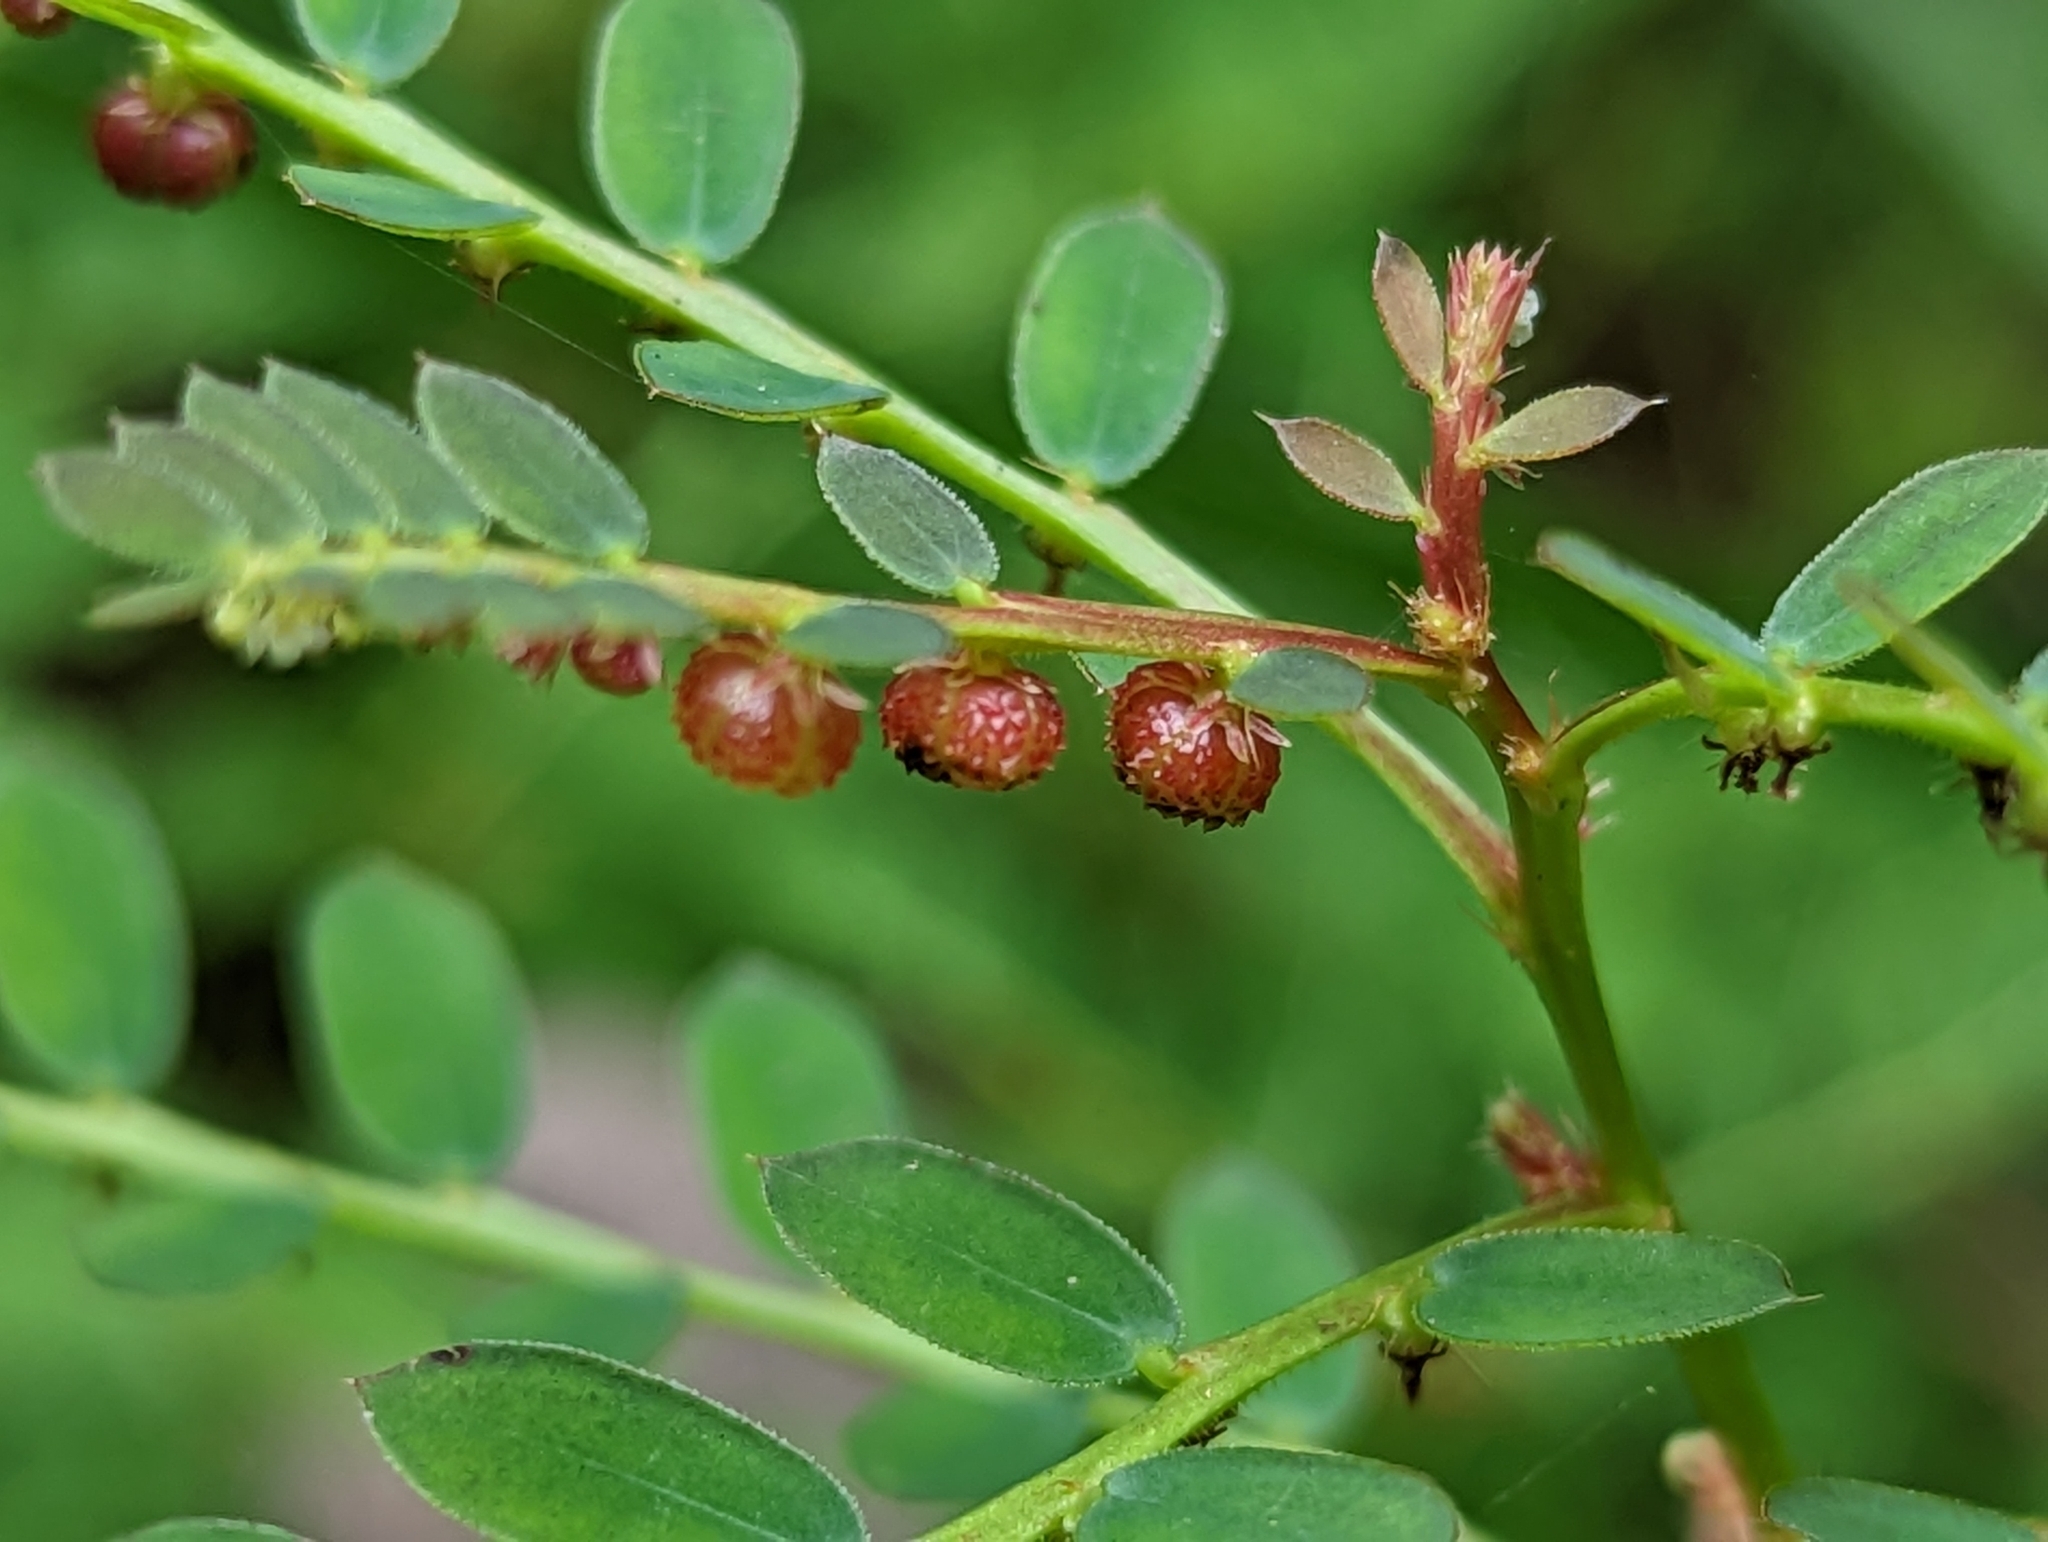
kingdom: Plantae
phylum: Tracheophyta
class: Magnoliopsida
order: Malpighiales
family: Phyllanthaceae
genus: Phyllanthus
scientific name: Phyllanthus urinaria
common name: Chamber bitter
